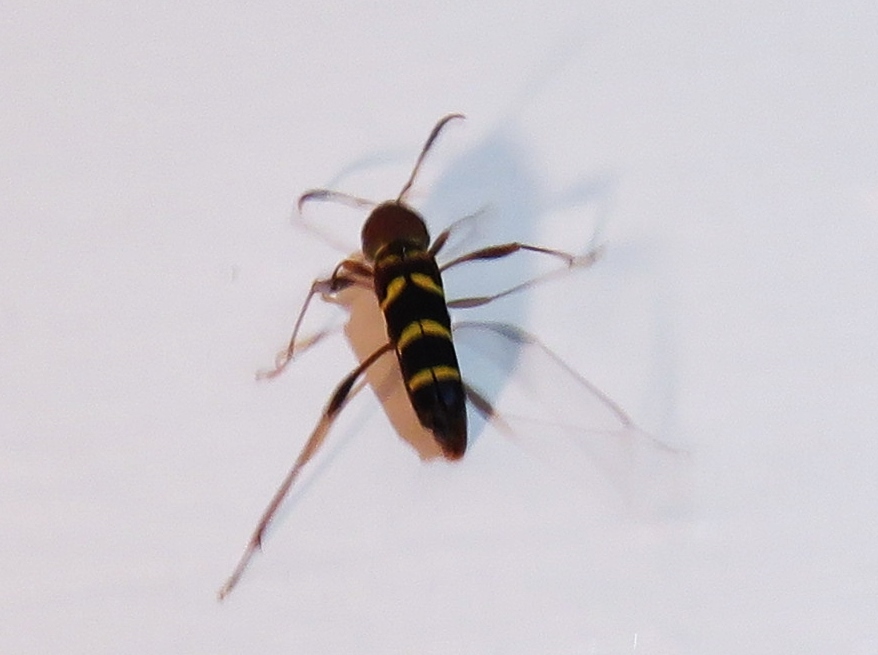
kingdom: Animalia
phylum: Arthropoda
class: Insecta
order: Coleoptera
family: Cerambycidae
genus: Neoclytus
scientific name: Neoclytus acuminatus
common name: Read-headed ash borer
